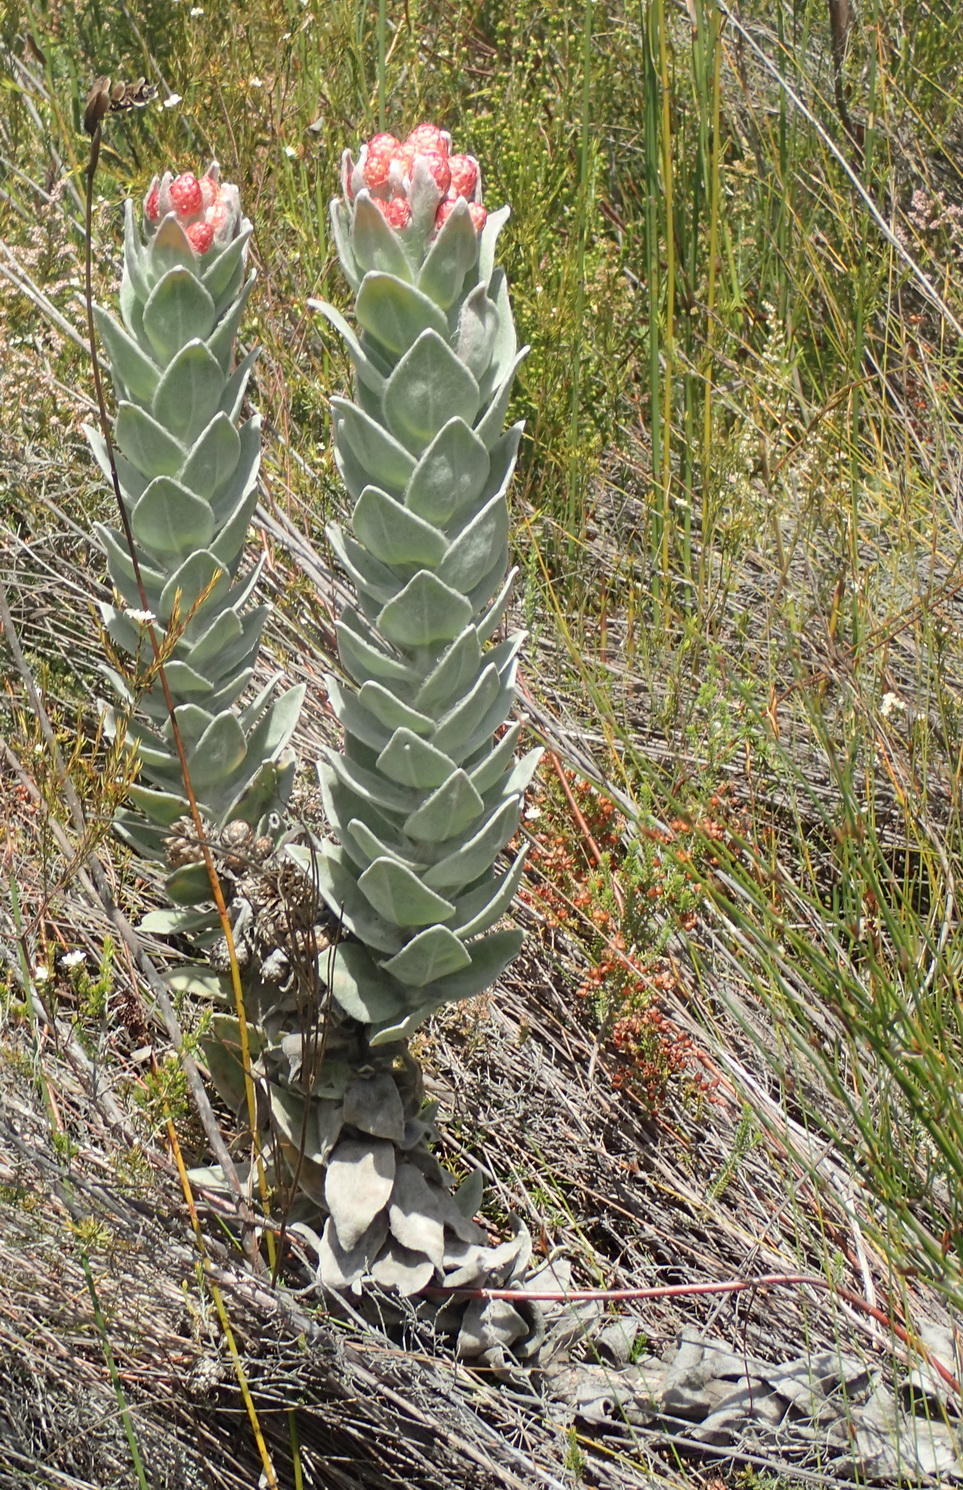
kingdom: Plantae
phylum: Tracheophyta
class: Magnoliopsida
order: Asterales
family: Asteraceae
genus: Syncarpha
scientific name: Syncarpha eximia
